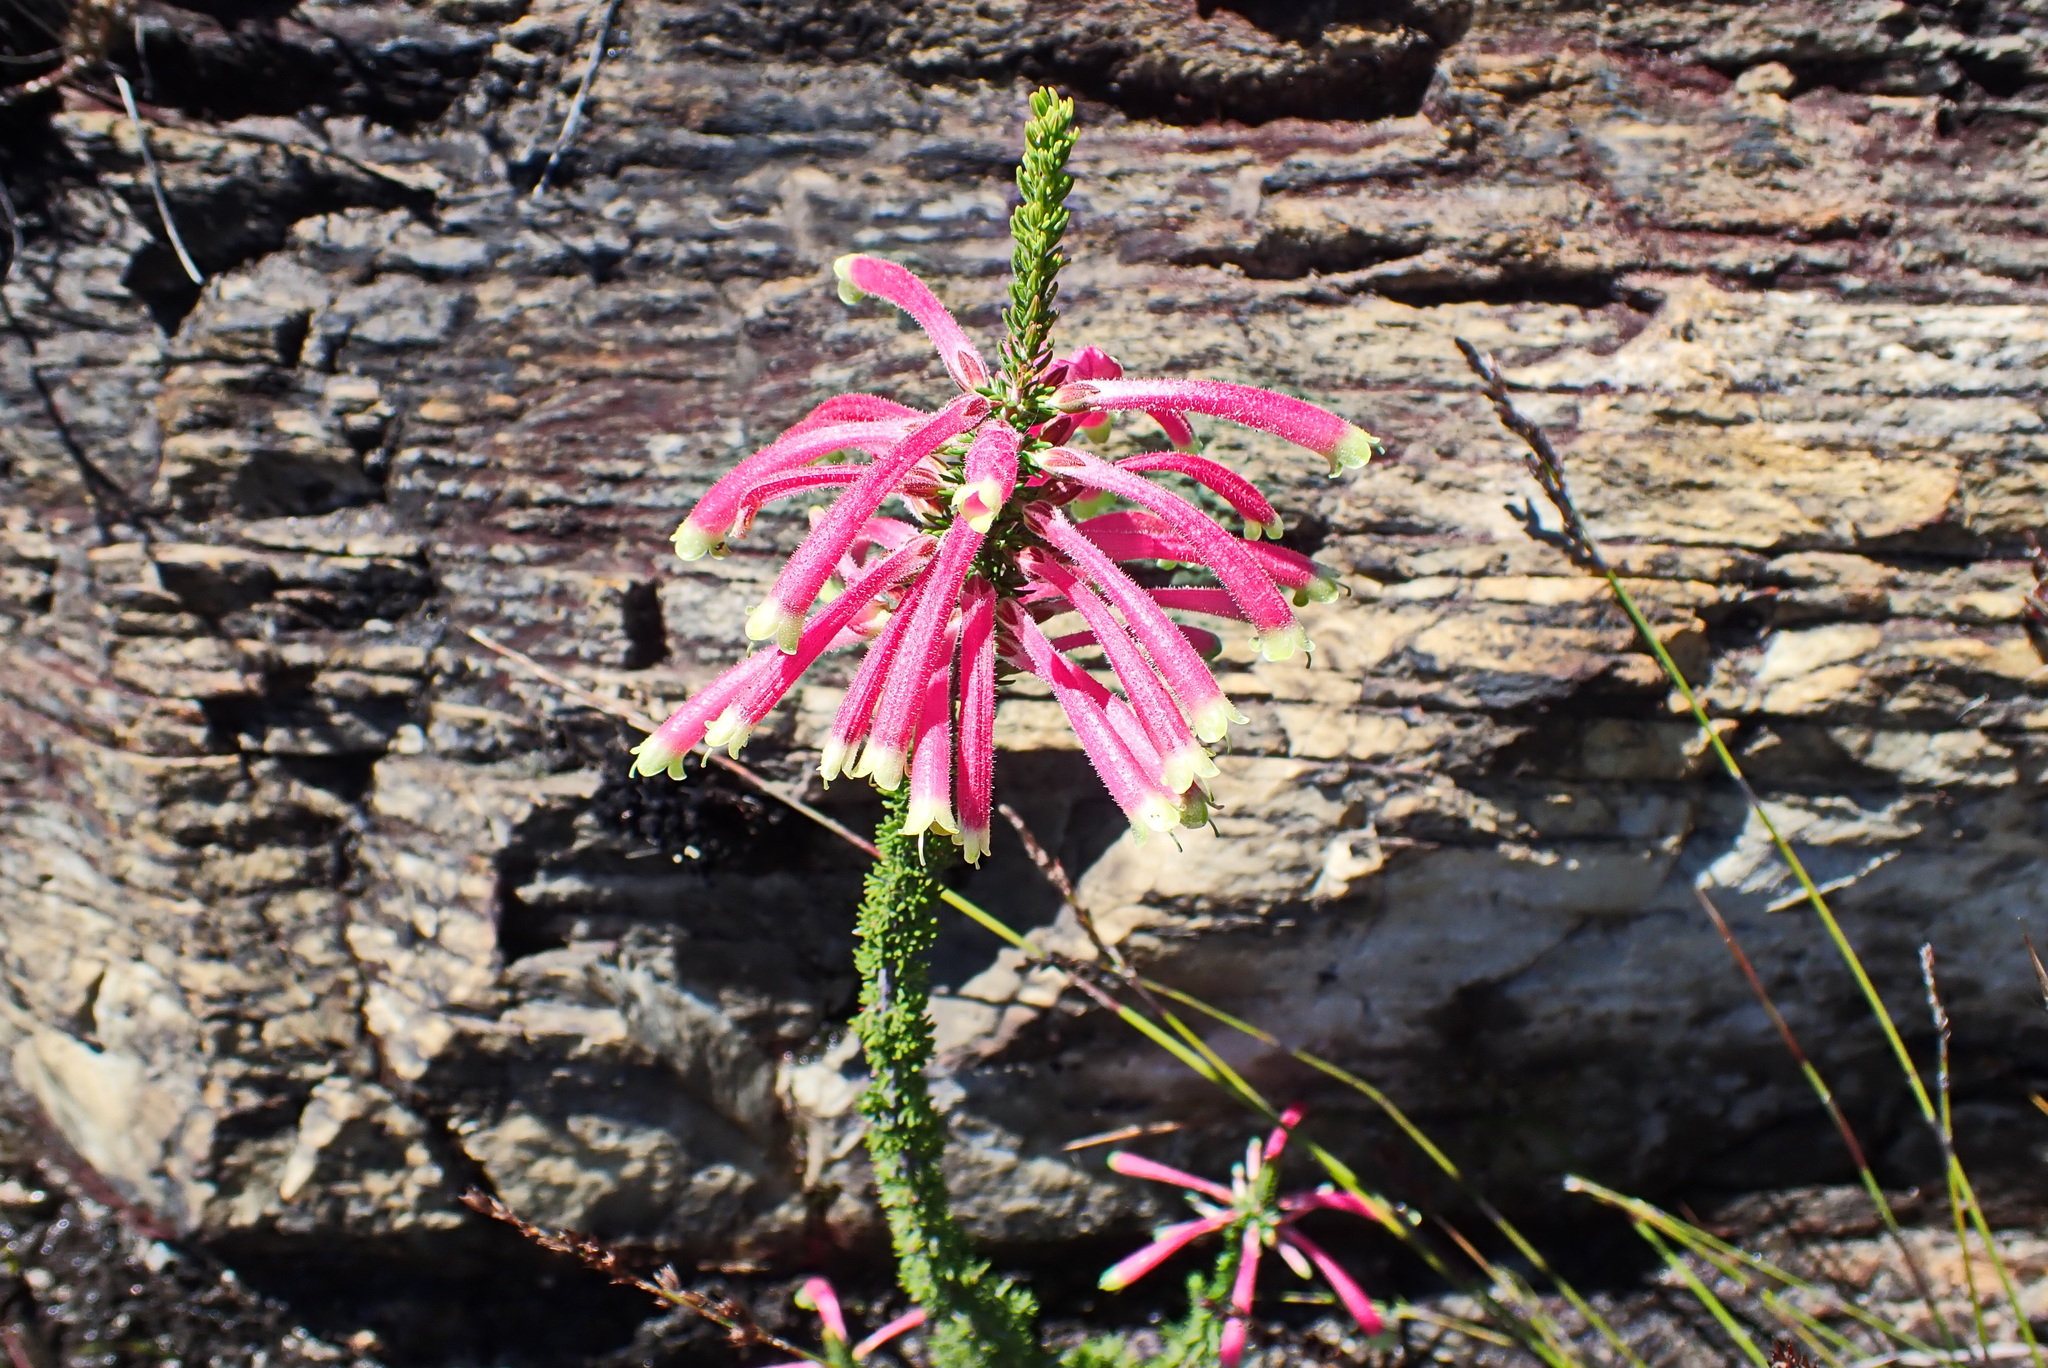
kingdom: Plantae
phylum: Tracheophyta
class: Magnoliopsida
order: Ericales
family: Ericaceae
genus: Erica
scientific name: Erica densifolia
